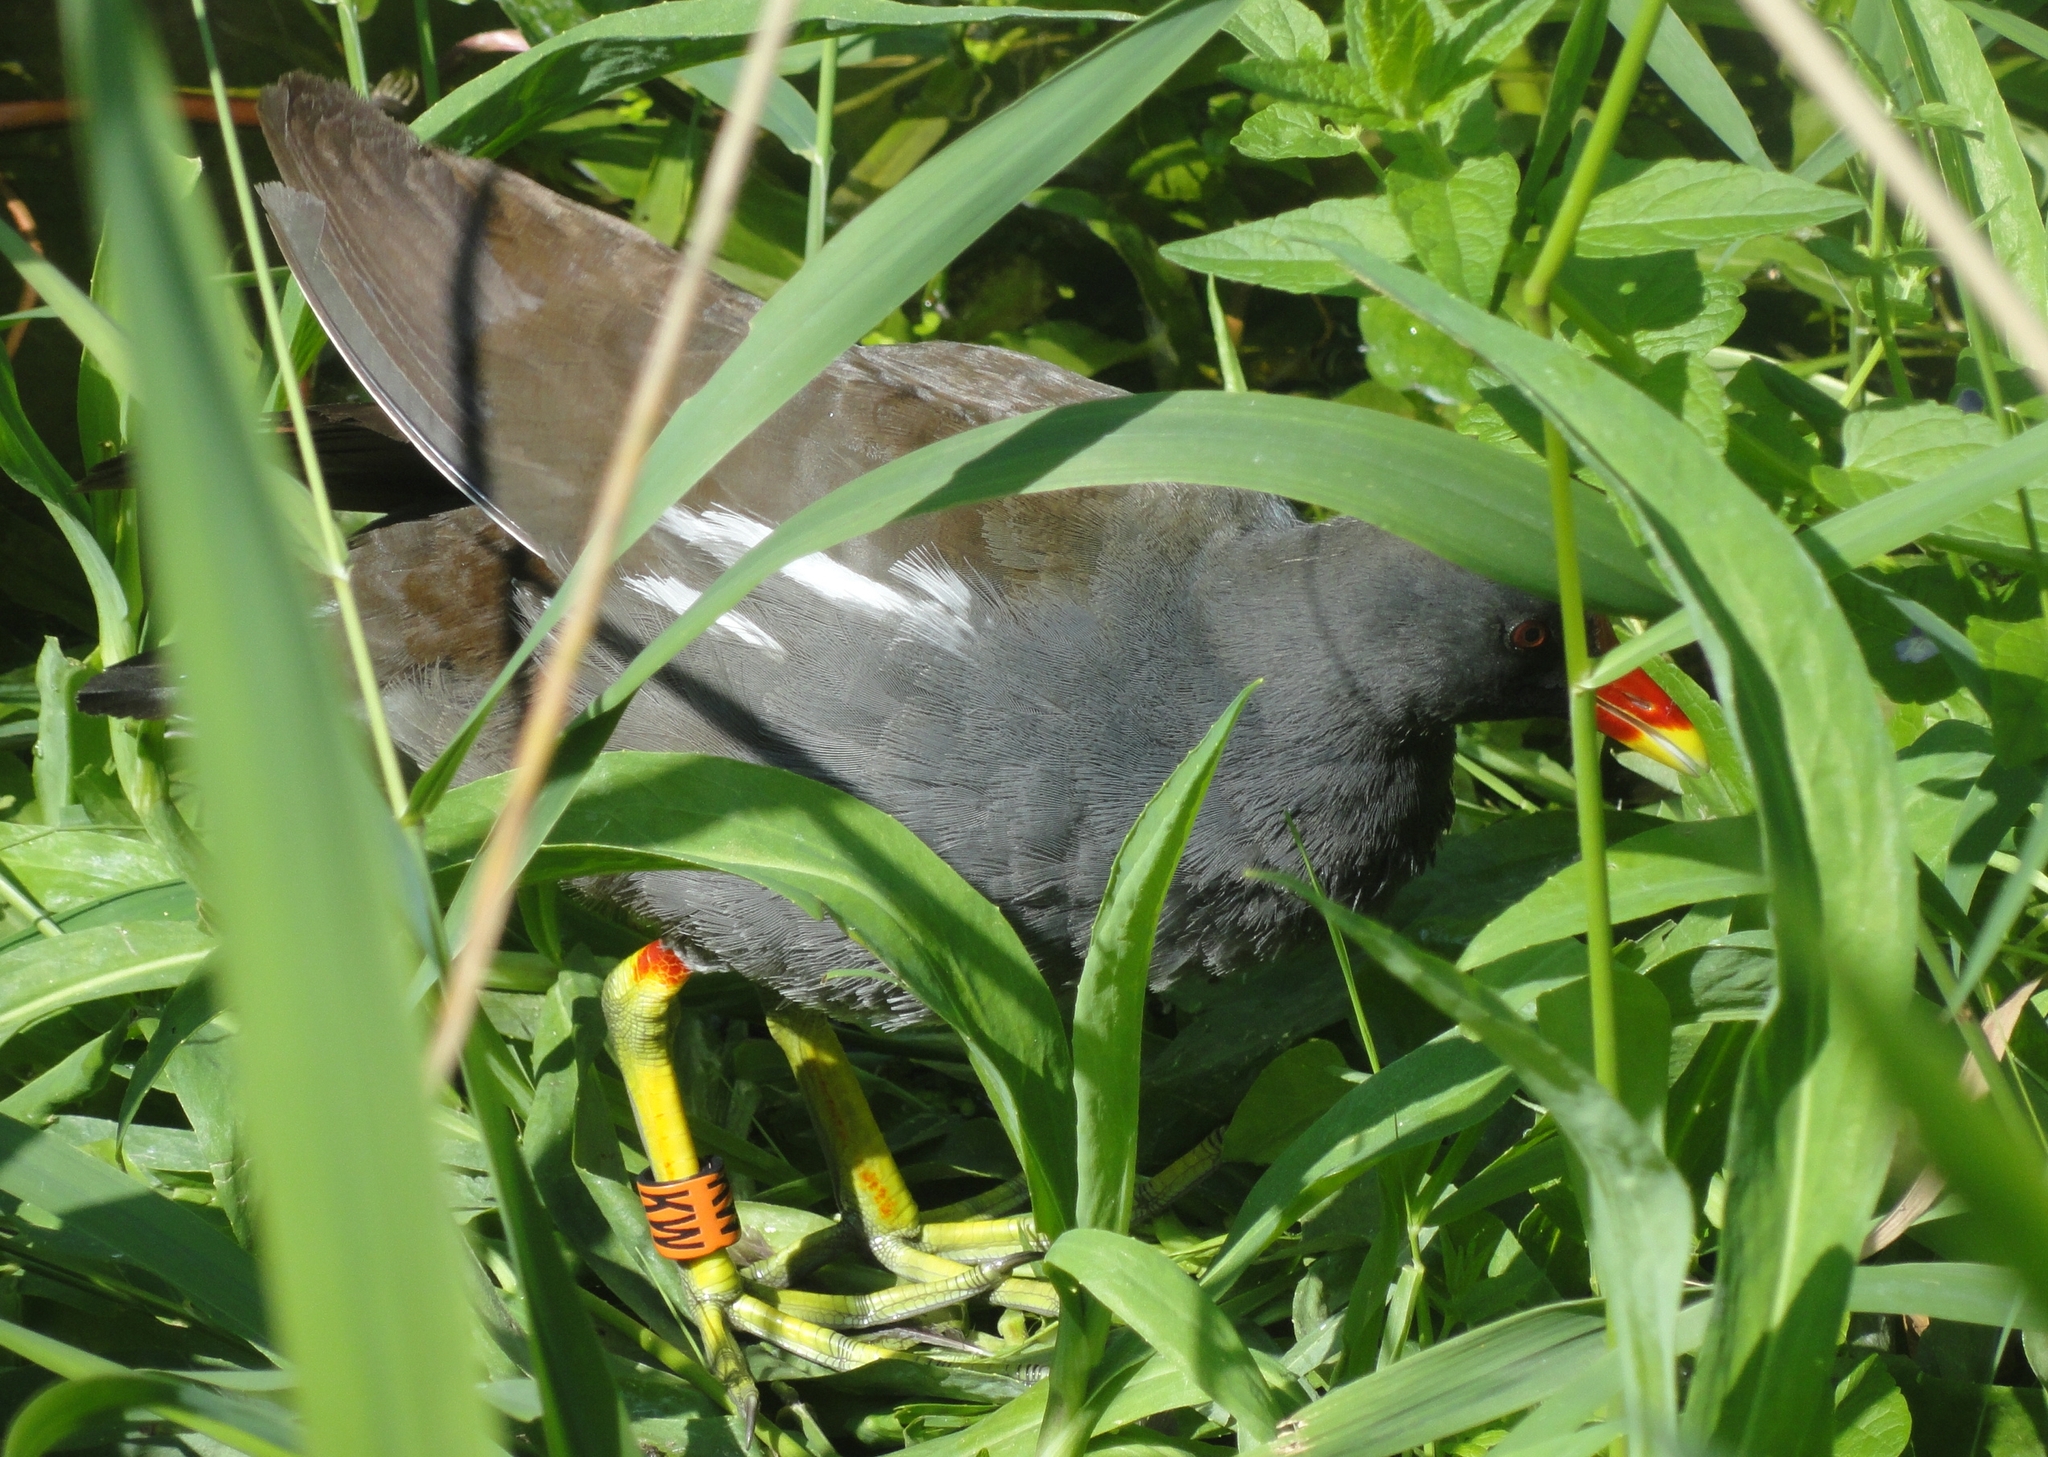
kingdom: Animalia
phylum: Chordata
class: Aves
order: Gruiformes
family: Rallidae
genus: Gallinula
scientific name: Gallinula chloropus
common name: Common moorhen
